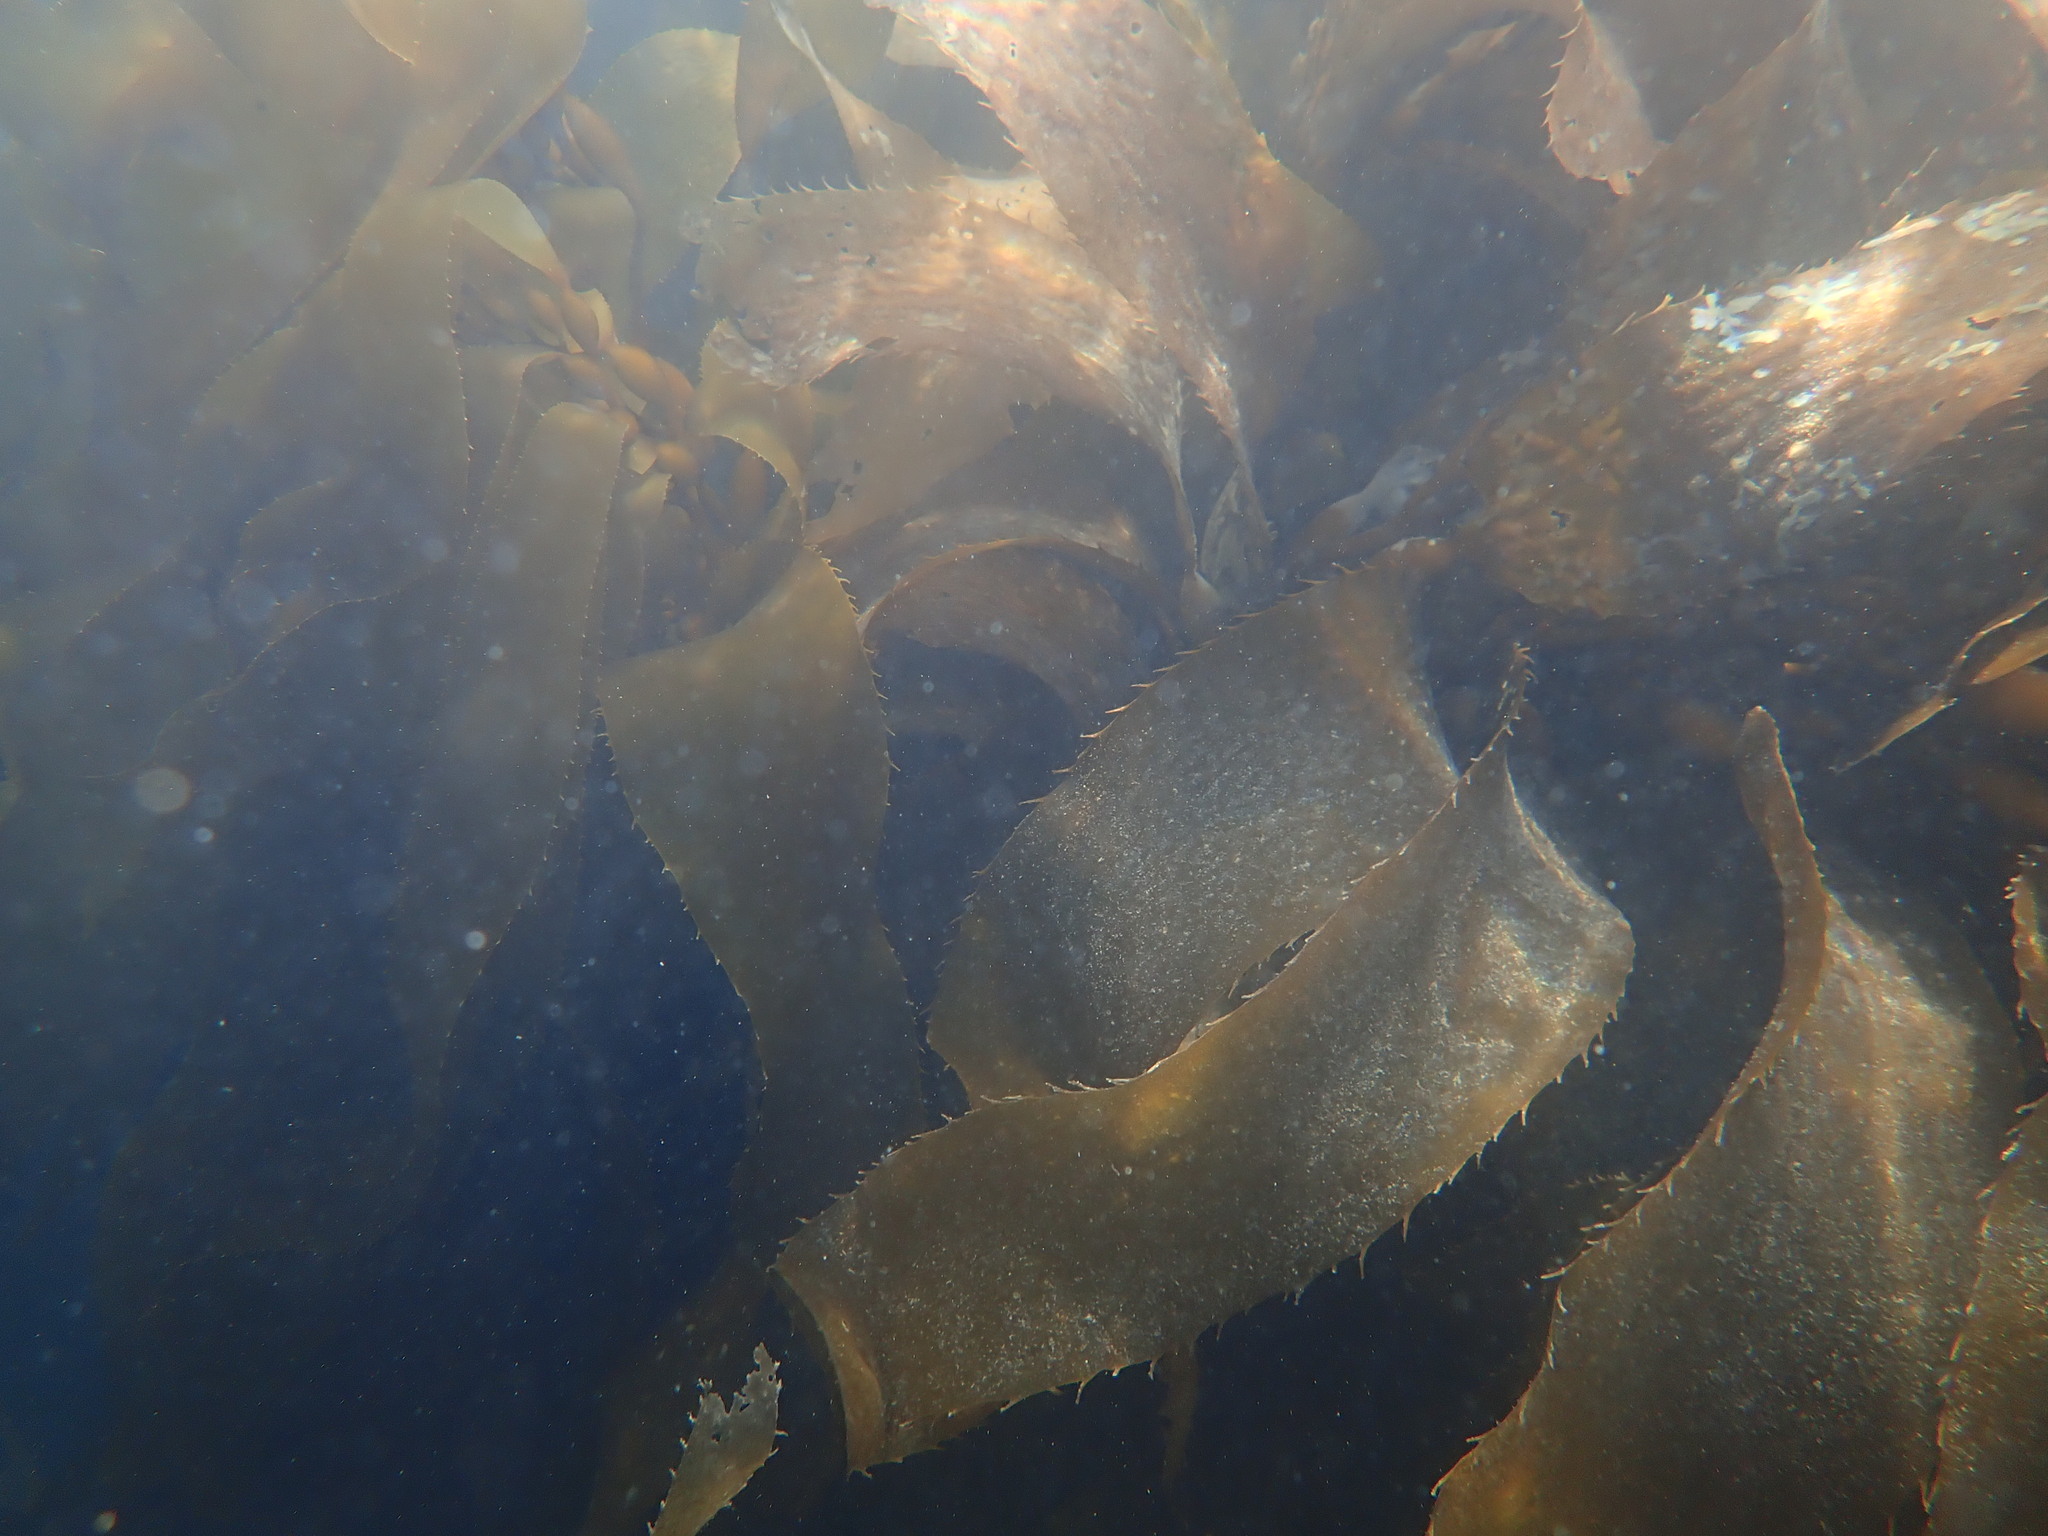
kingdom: Chromista
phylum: Ochrophyta
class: Phaeophyceae
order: Laminariales
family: Laminariaceae
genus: Macrocystis
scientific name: Macrocystis pyrifera
